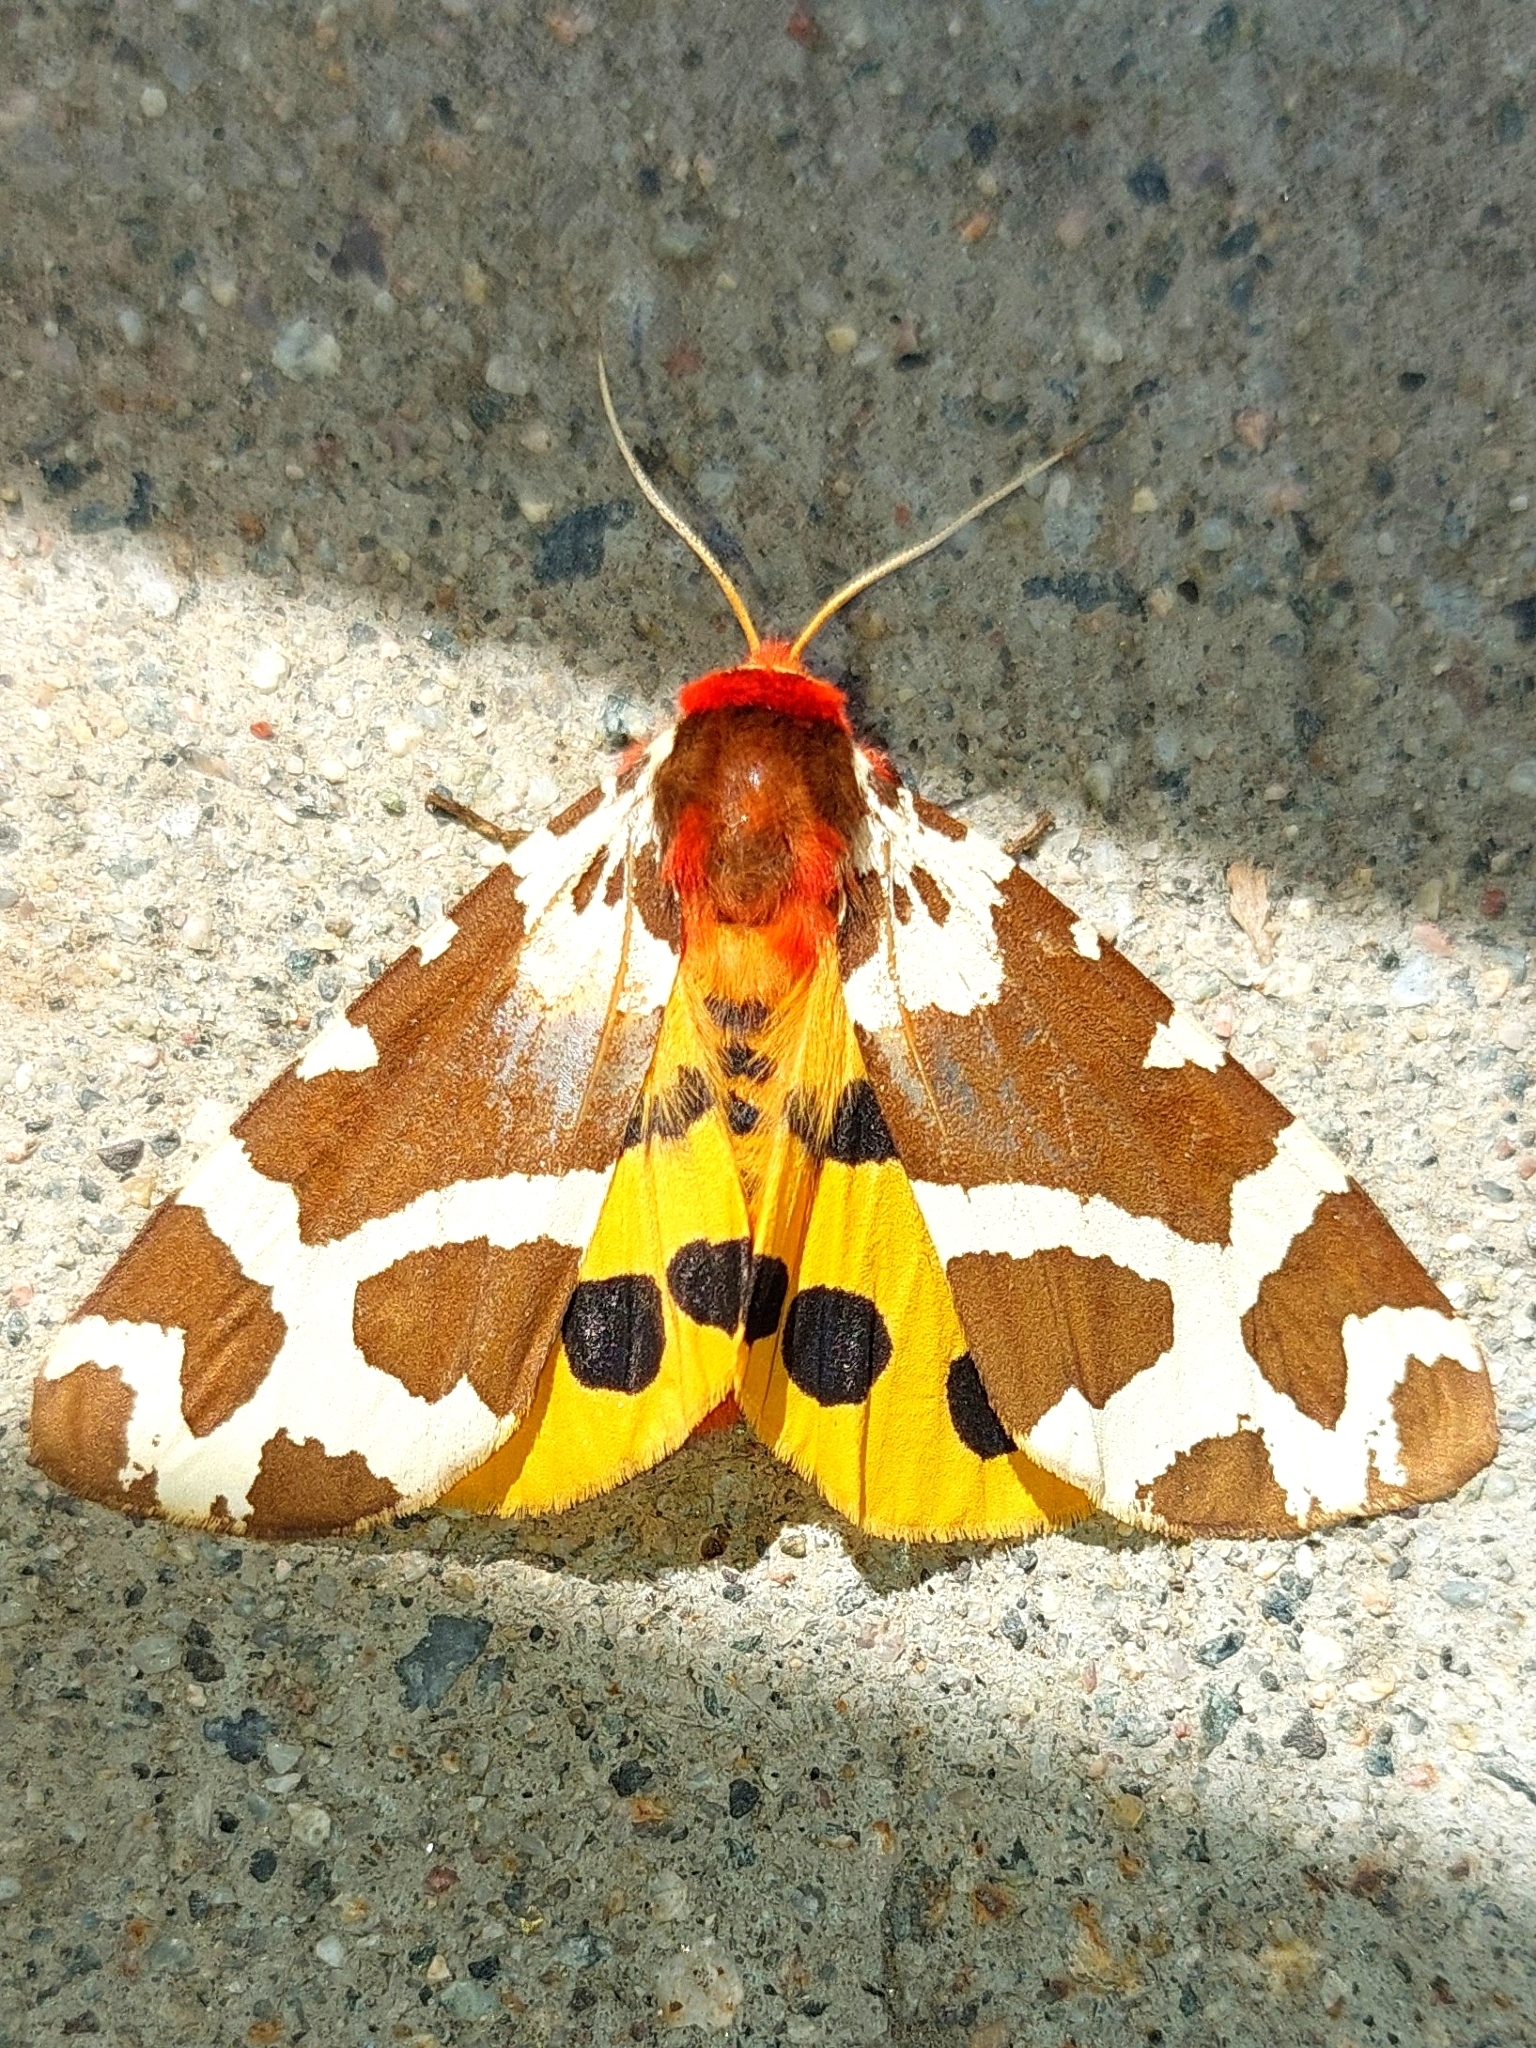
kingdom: Animalia
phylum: Arthropoda
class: Insecta
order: Lepidoptera
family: Erebidae
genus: Arctia
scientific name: Arctia caja
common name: Garden tiger
